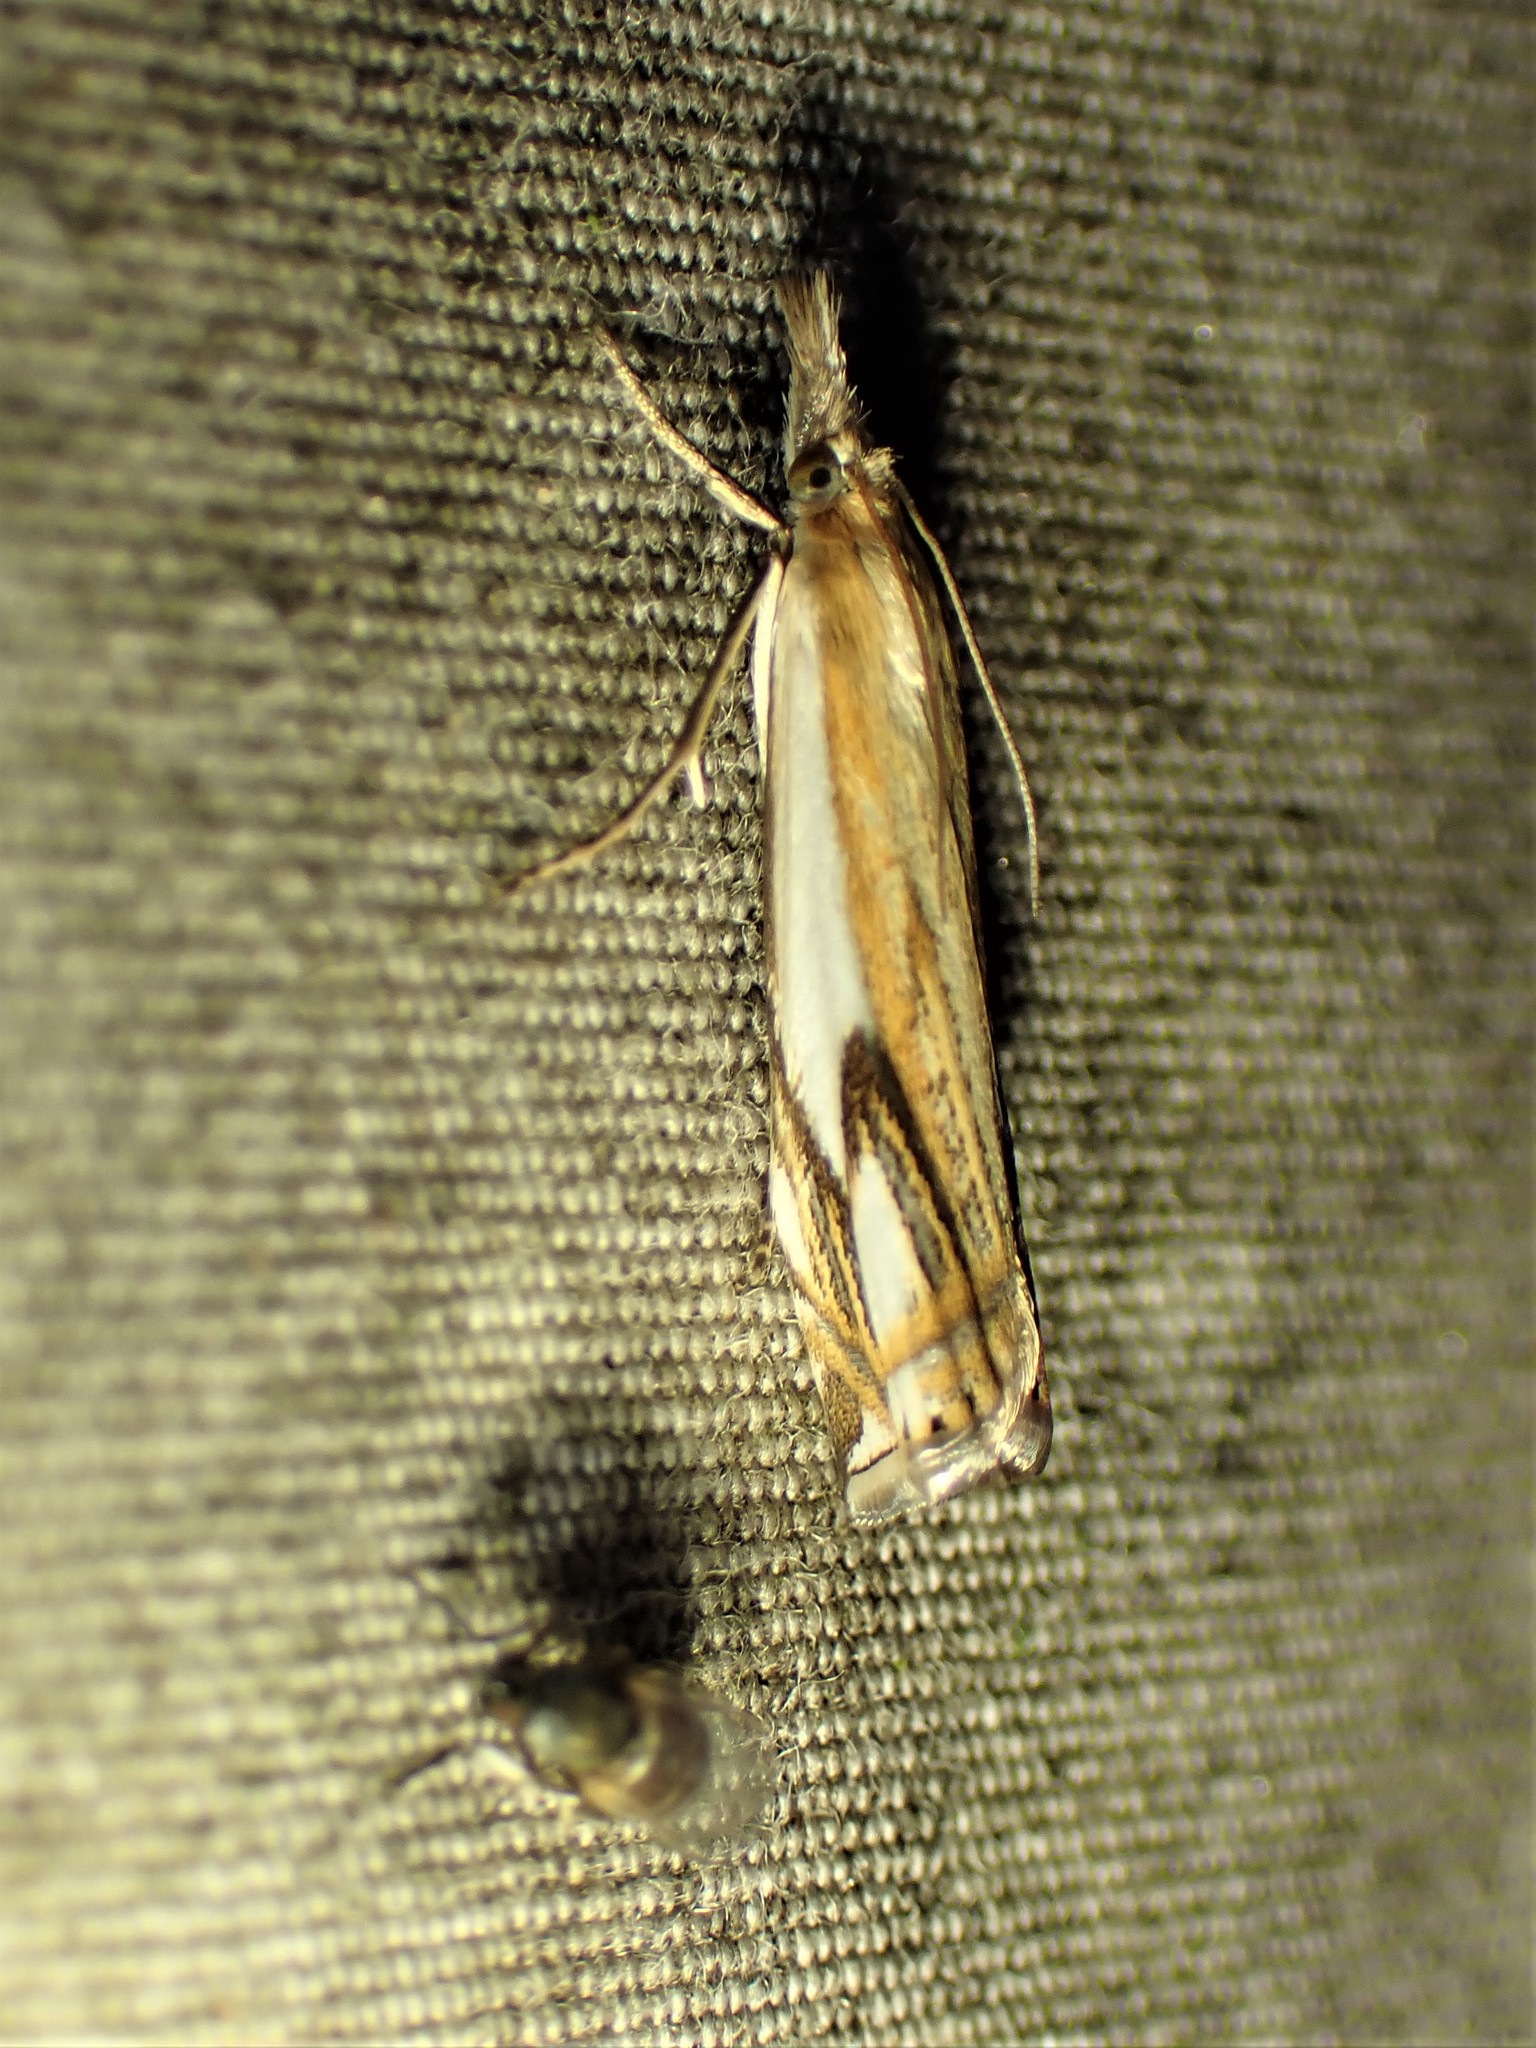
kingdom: Animalia
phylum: Arthropoda
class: Insecta
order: Lepidoptera
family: Crambidae
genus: Crambus
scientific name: Crambus agitatellus
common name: Double-banded grass-veneer
